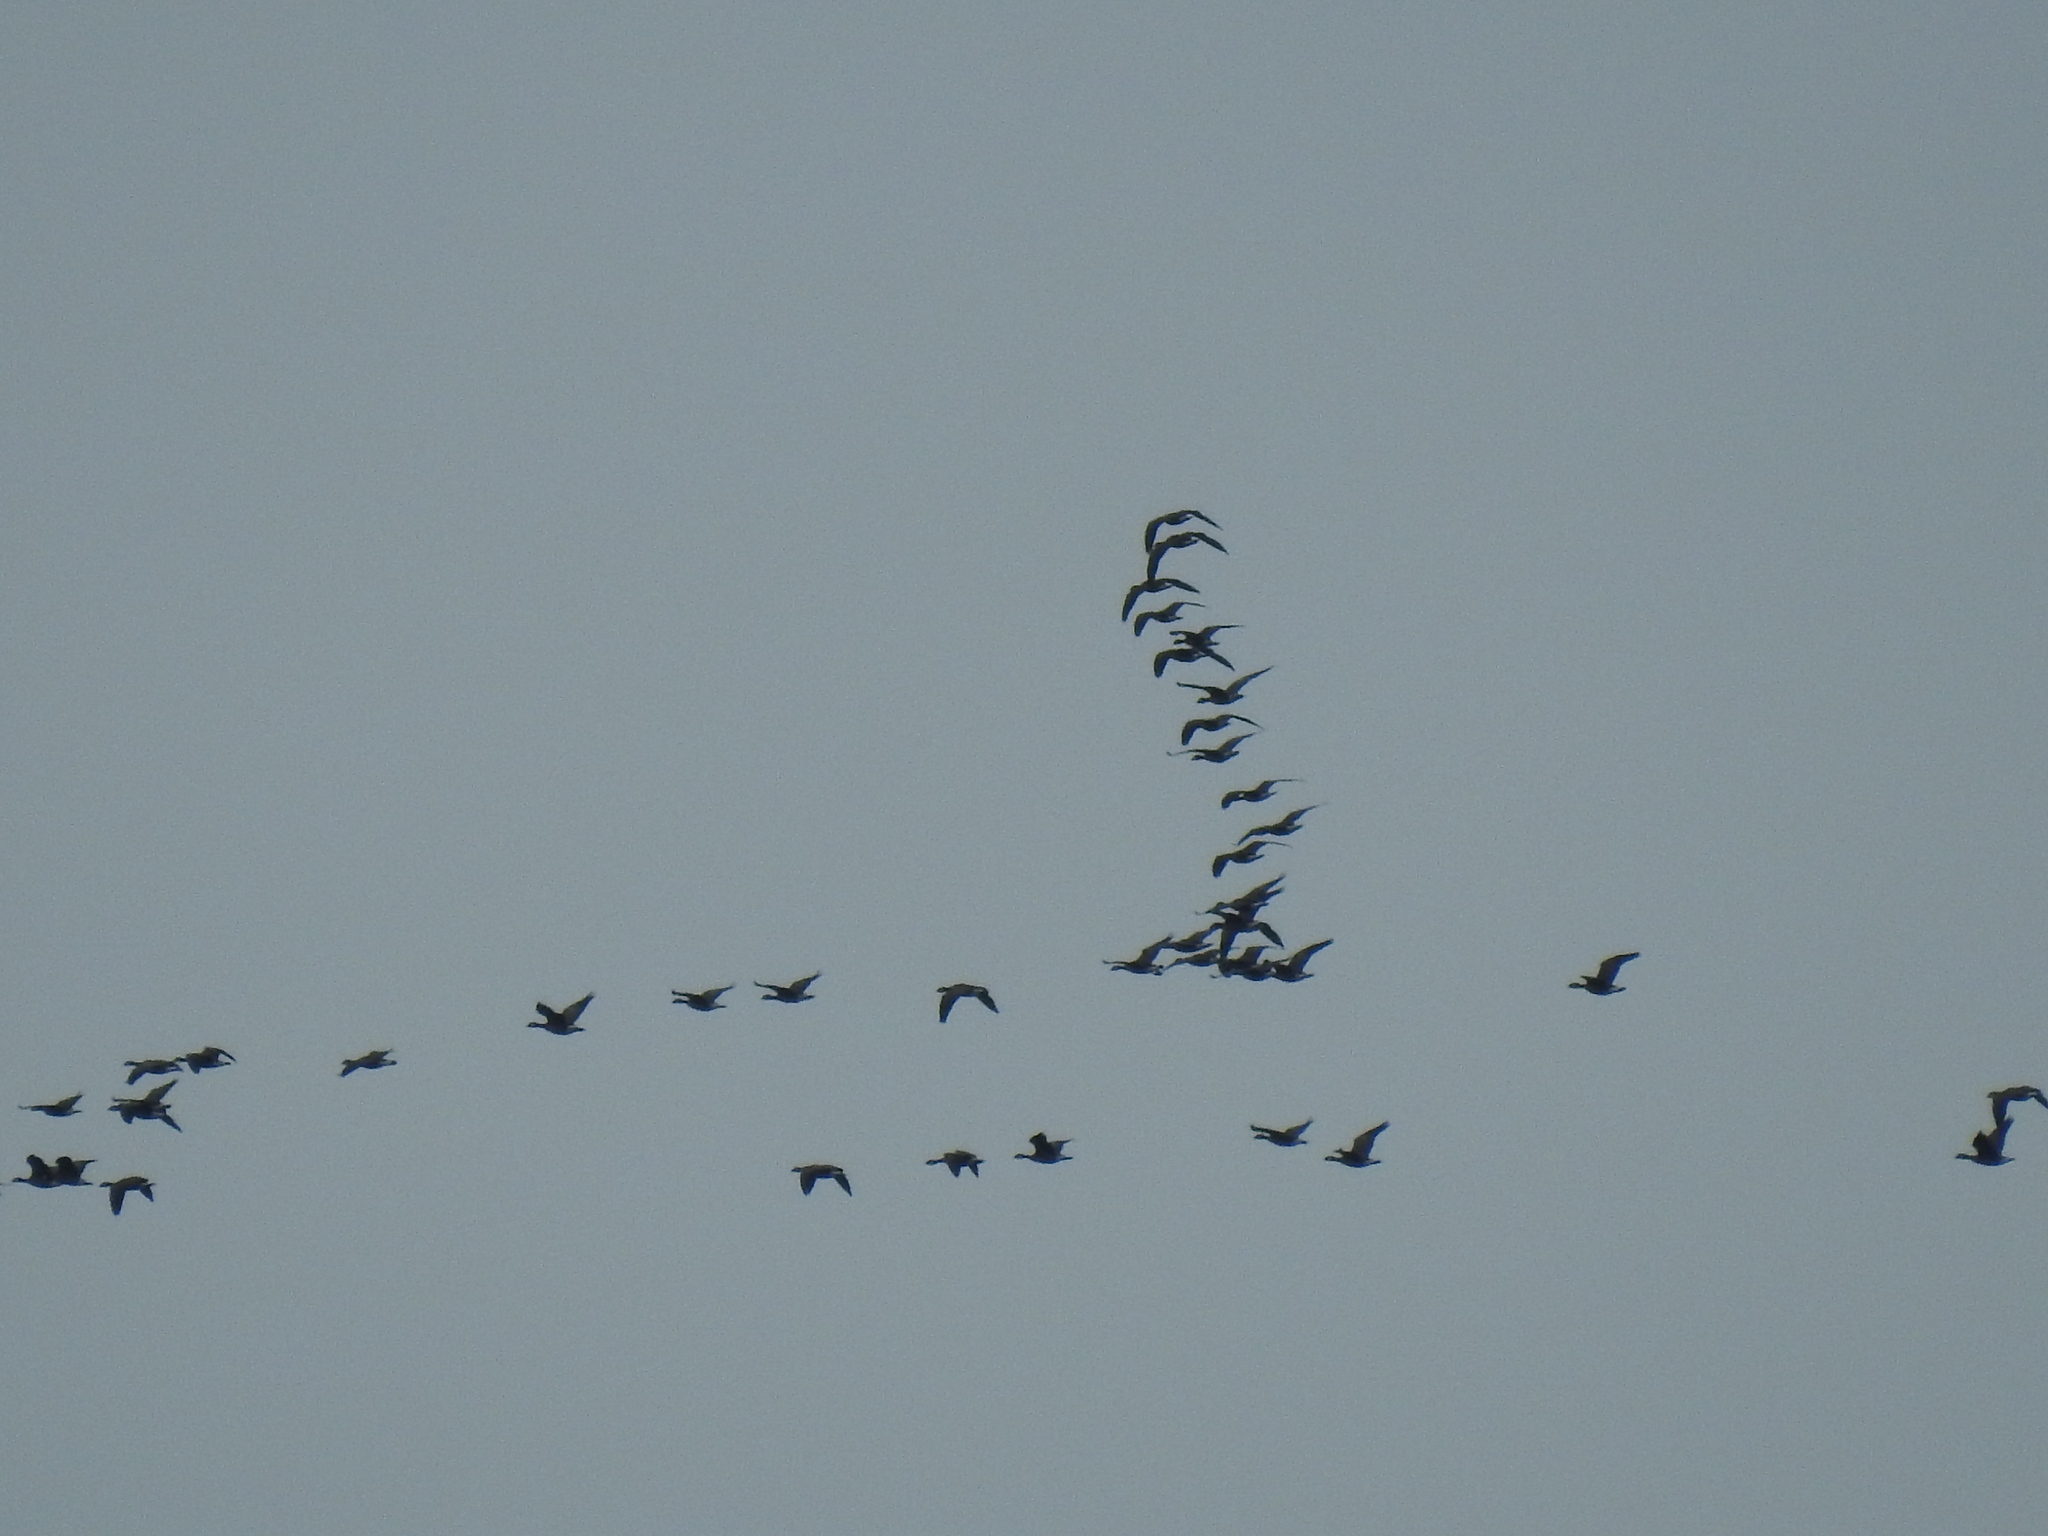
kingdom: Animalia
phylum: Chordata
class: Aves
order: Anseriformes
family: Anatidae
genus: Branta
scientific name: Branta hutchinsii
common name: Cackling goose
